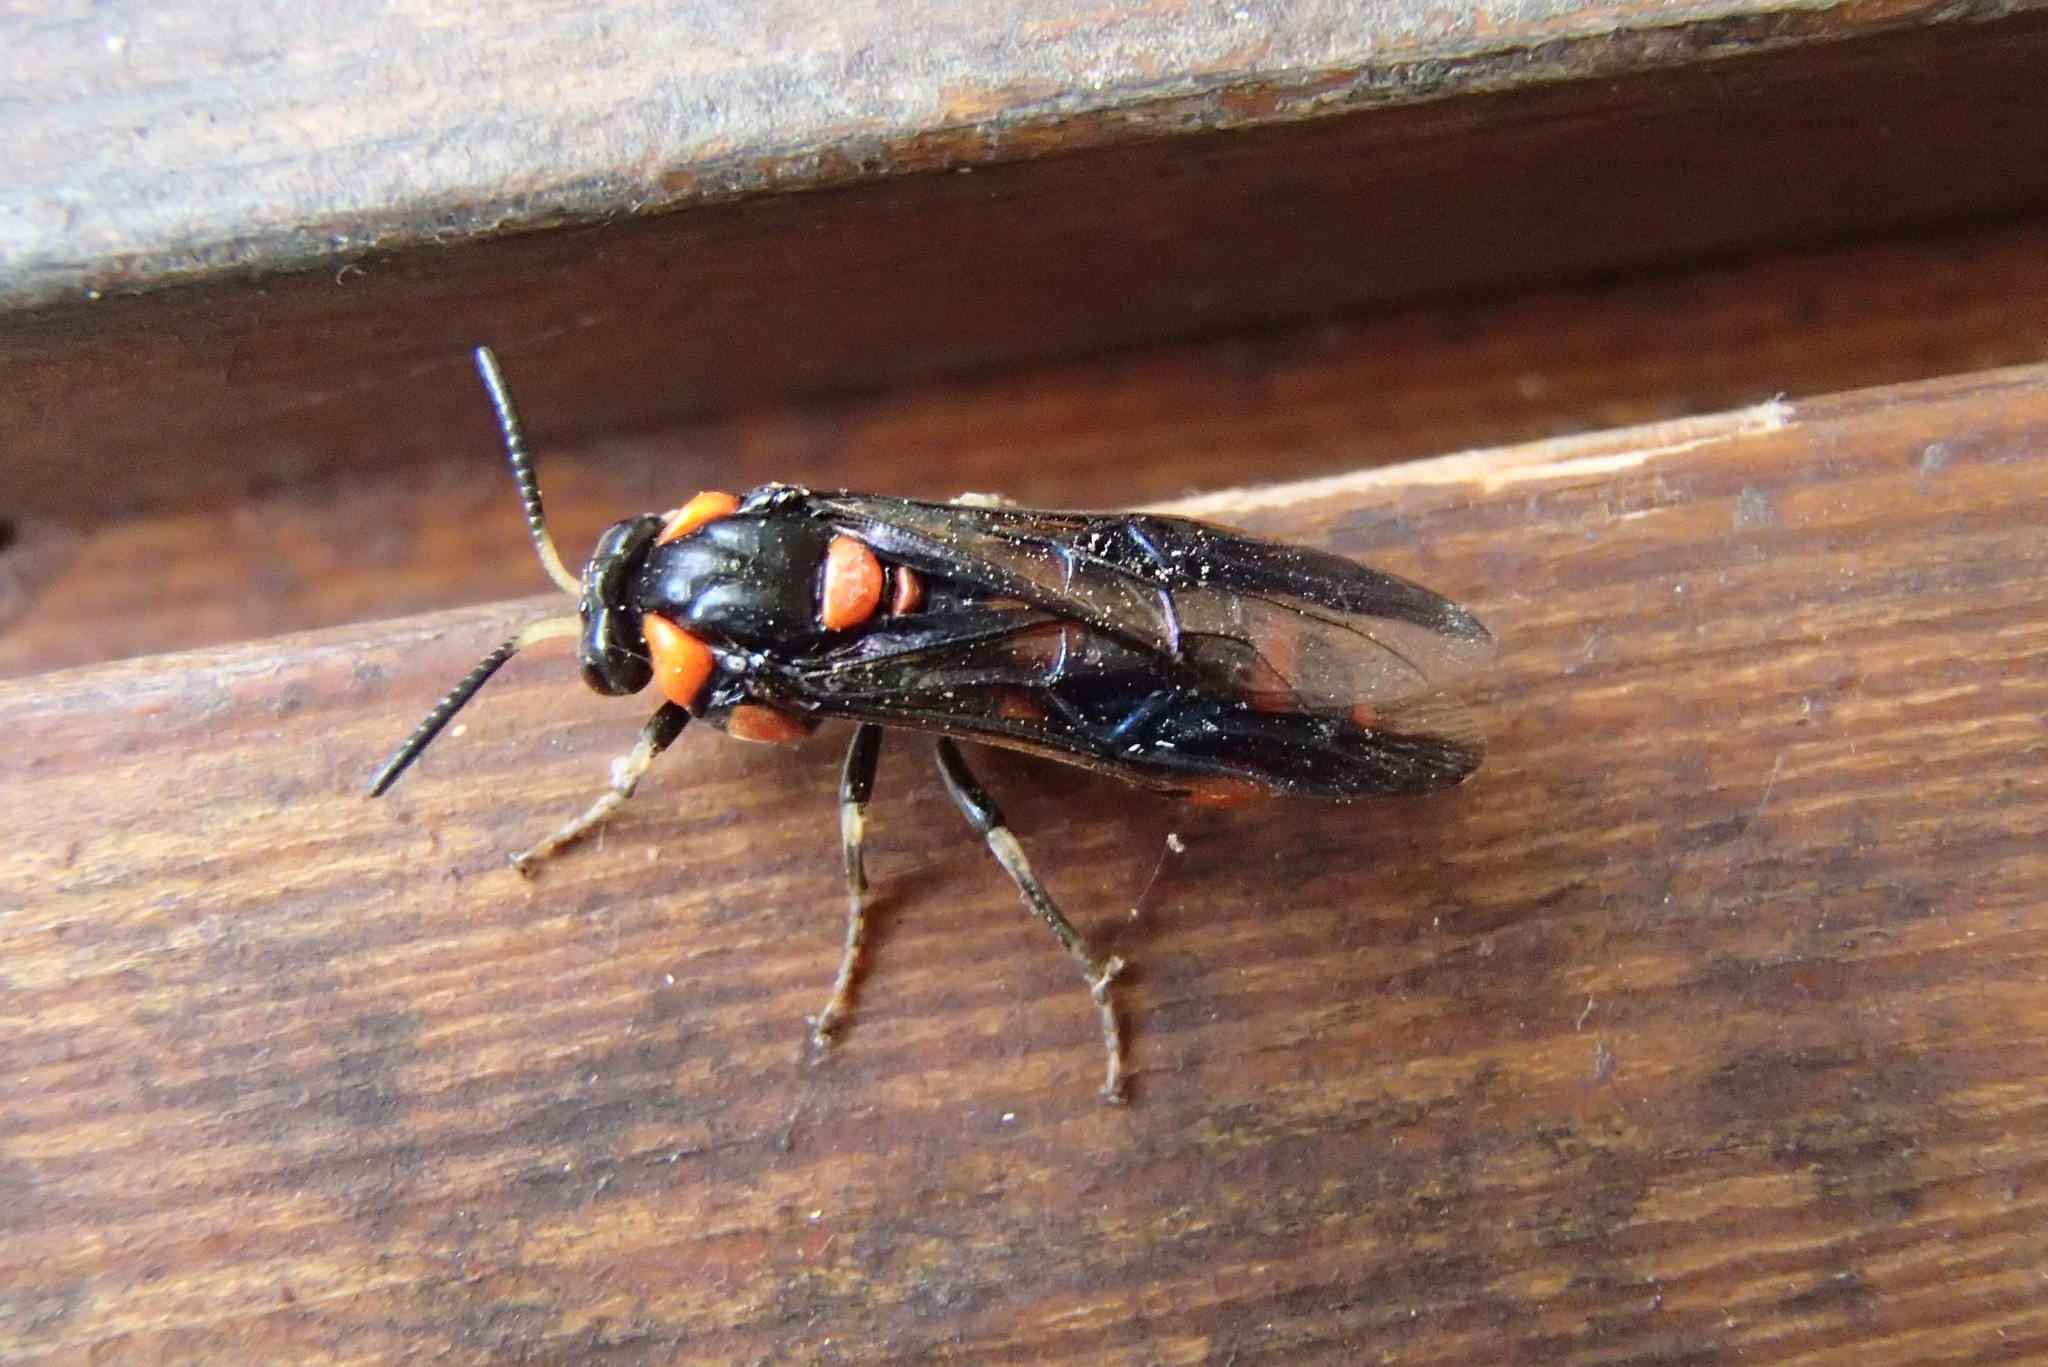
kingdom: Animalia
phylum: Arthropoda
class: Insecta
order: Hymenoptera
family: Pergidae
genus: Pterygophorus
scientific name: Pterygophorus
